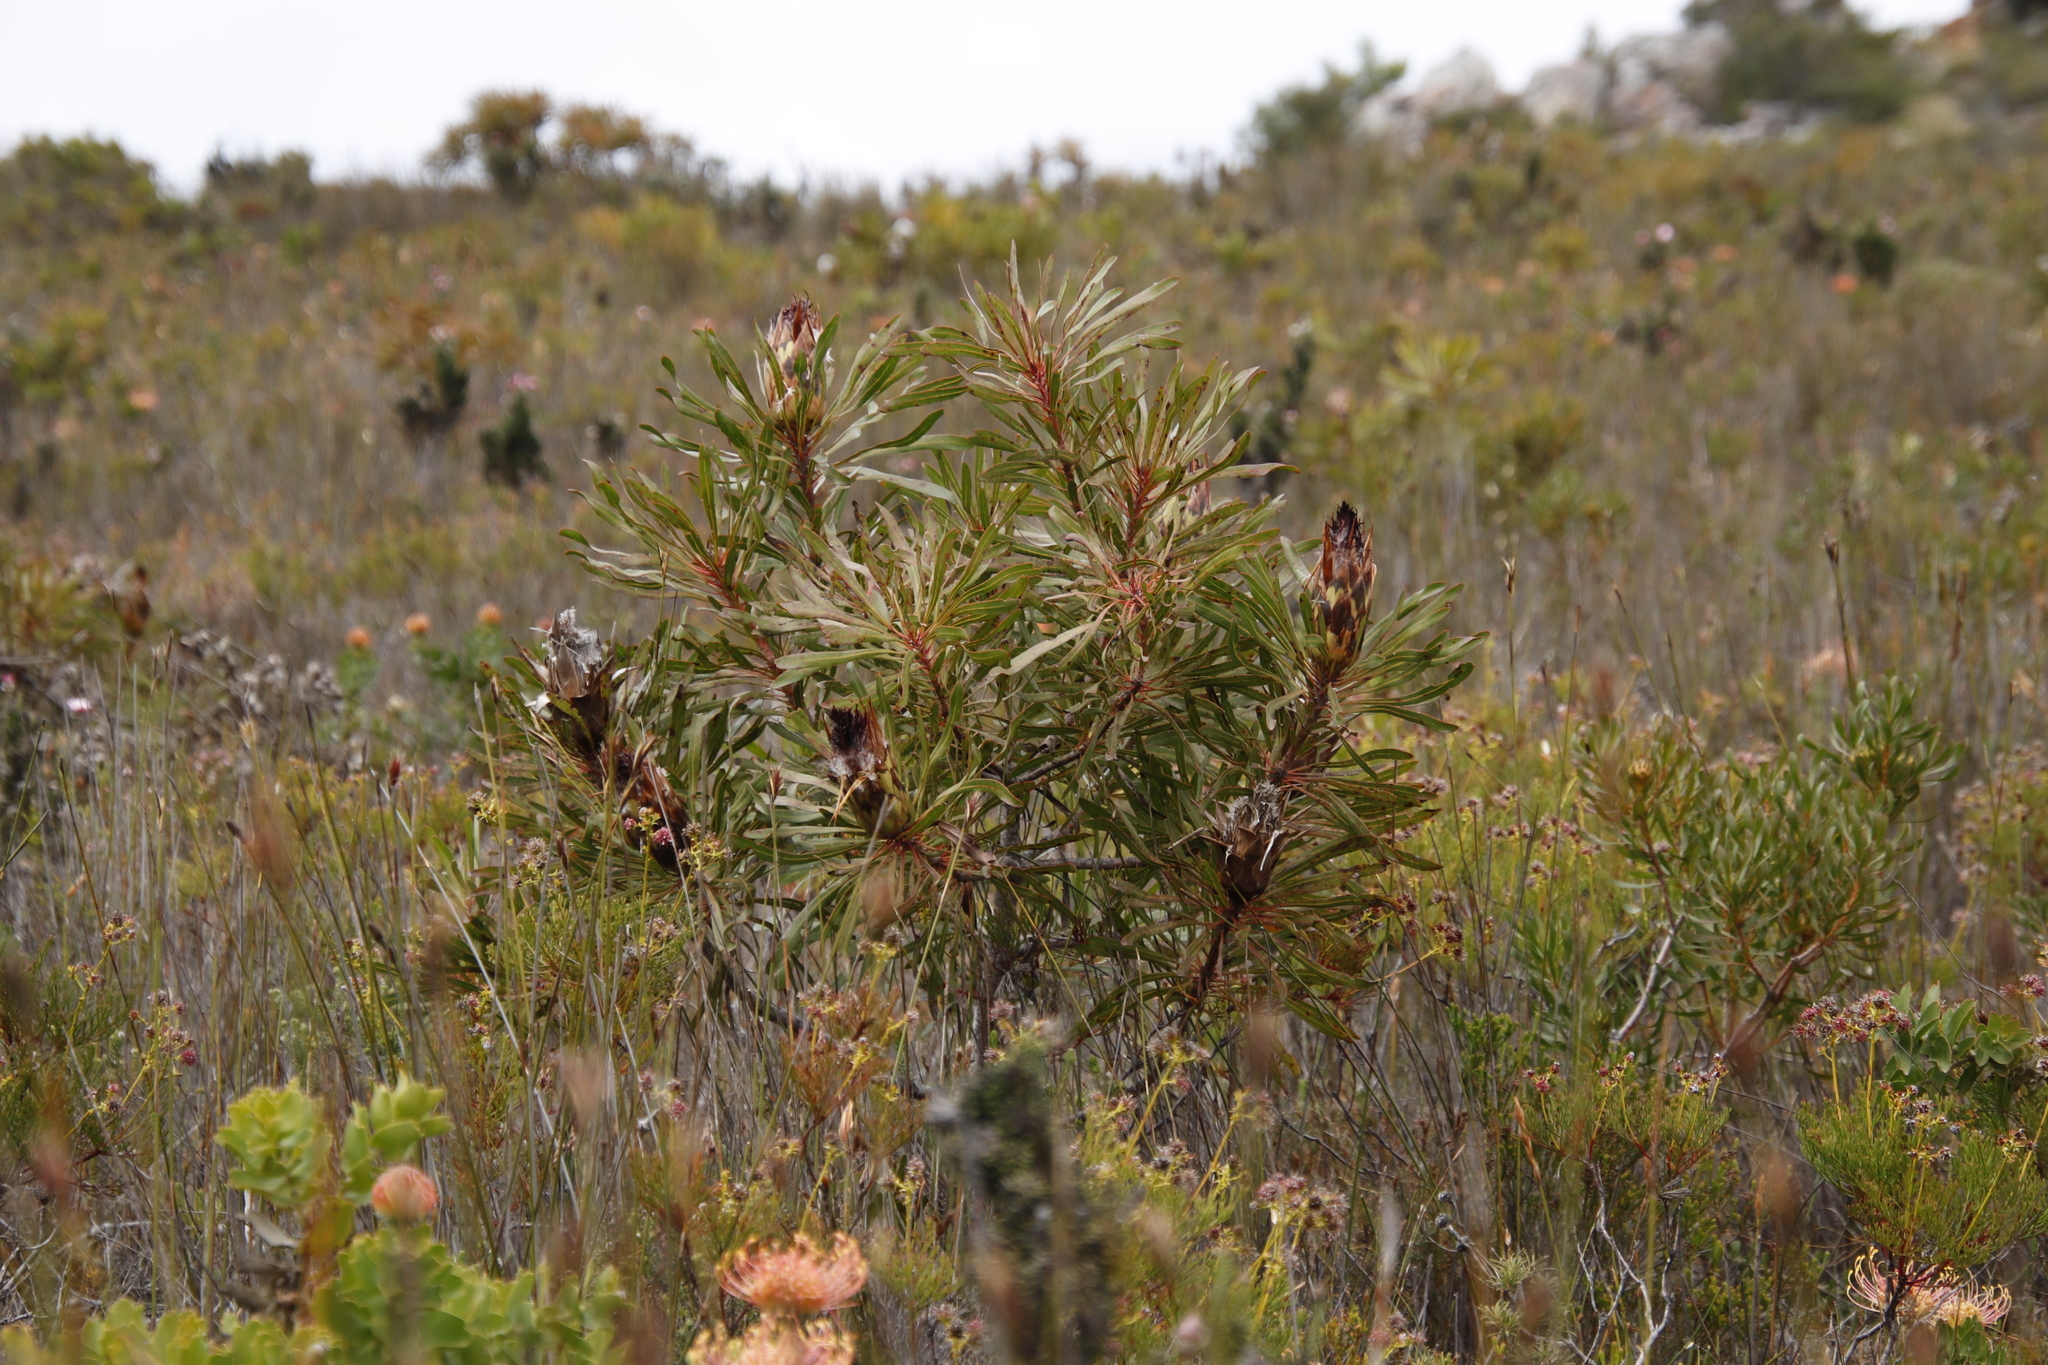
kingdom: Plantae
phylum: Tracheophyta
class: Magnoliopsida
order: Proteales
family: Proteaceae
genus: Protea
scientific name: Protea longifolia
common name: Long-leaf sugarbush
